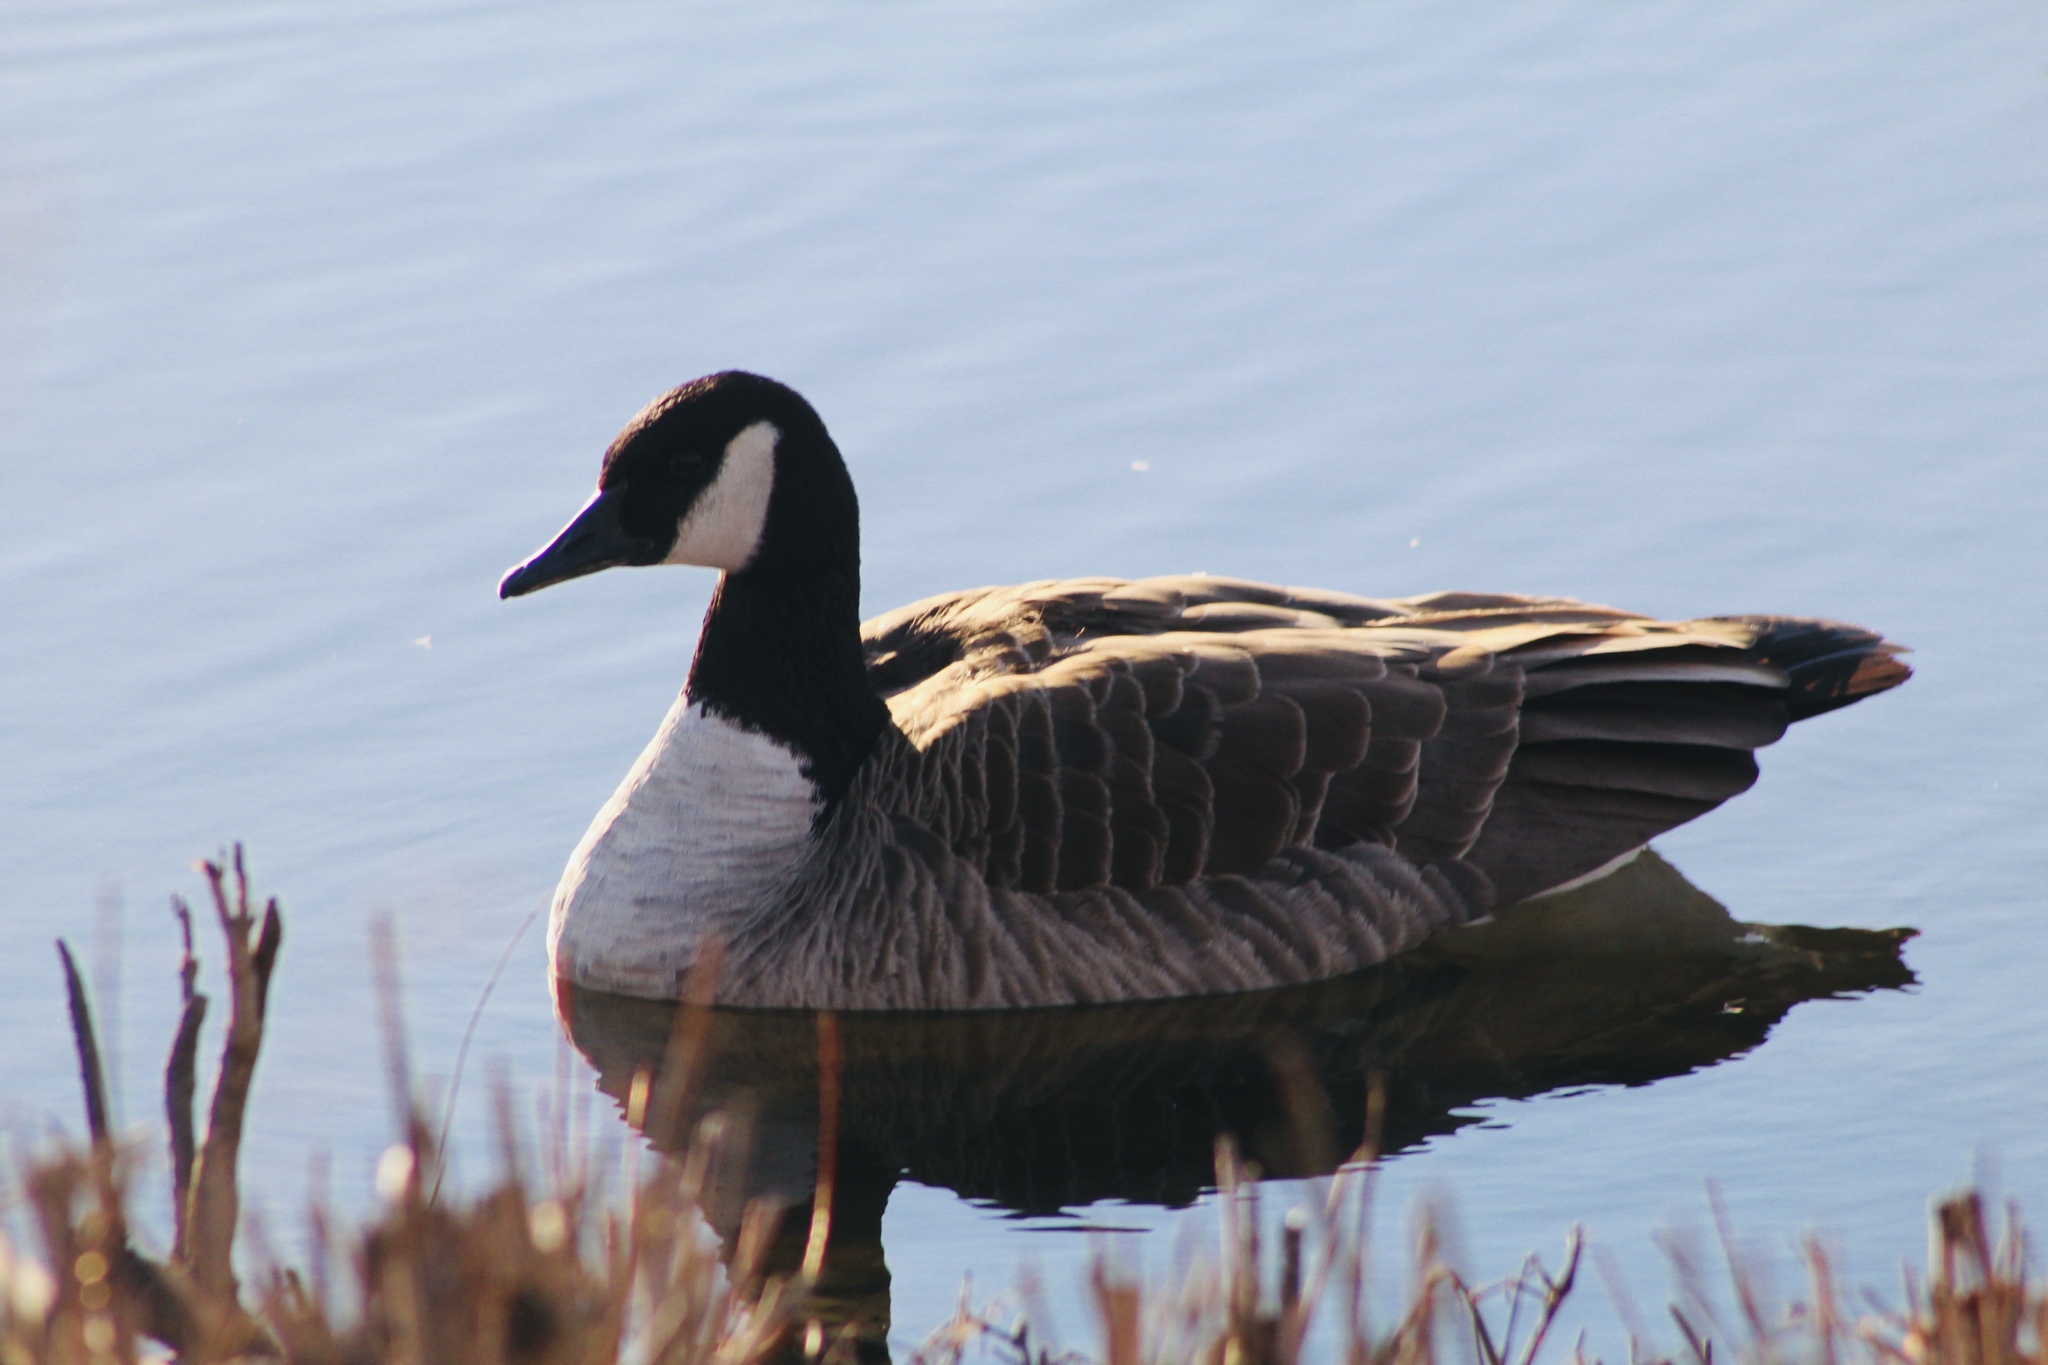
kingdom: Animalia
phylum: Chordata
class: Aves
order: Anseriformes
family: Anatidae
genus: Branta
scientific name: Branta canadensis
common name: Canada goose
